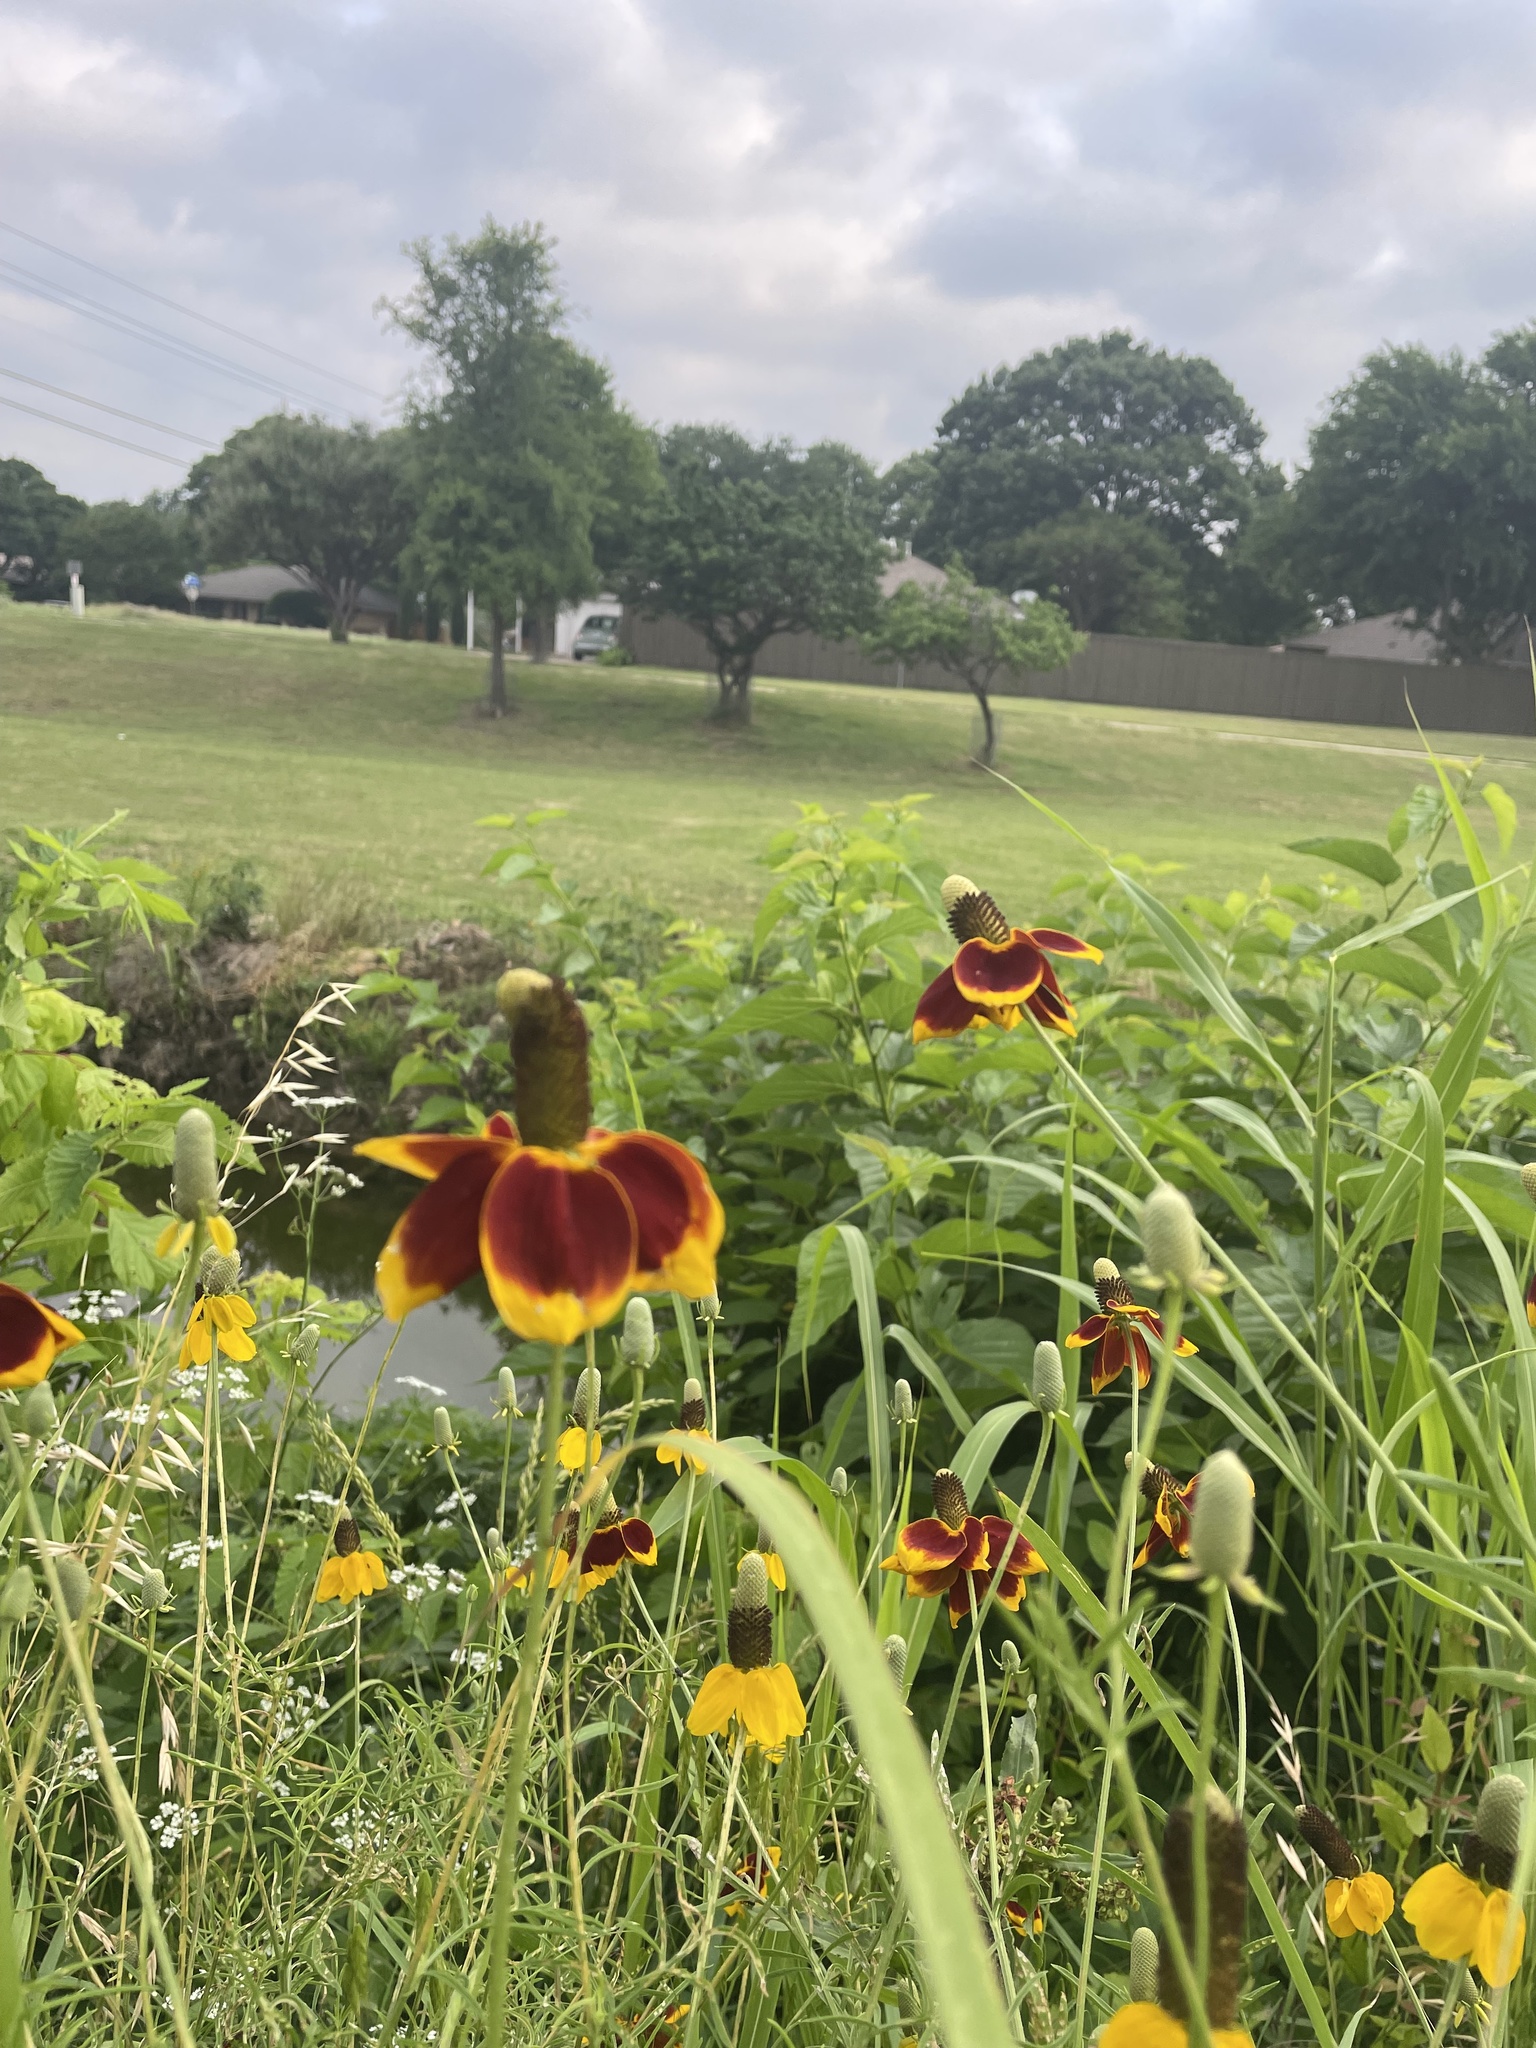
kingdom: Plantae
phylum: Tracheophyta
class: Magnoliopsida
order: Asterales
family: Asteraceae
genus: Ratibida
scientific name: Ratibida columnifera
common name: Prairie coneflower
